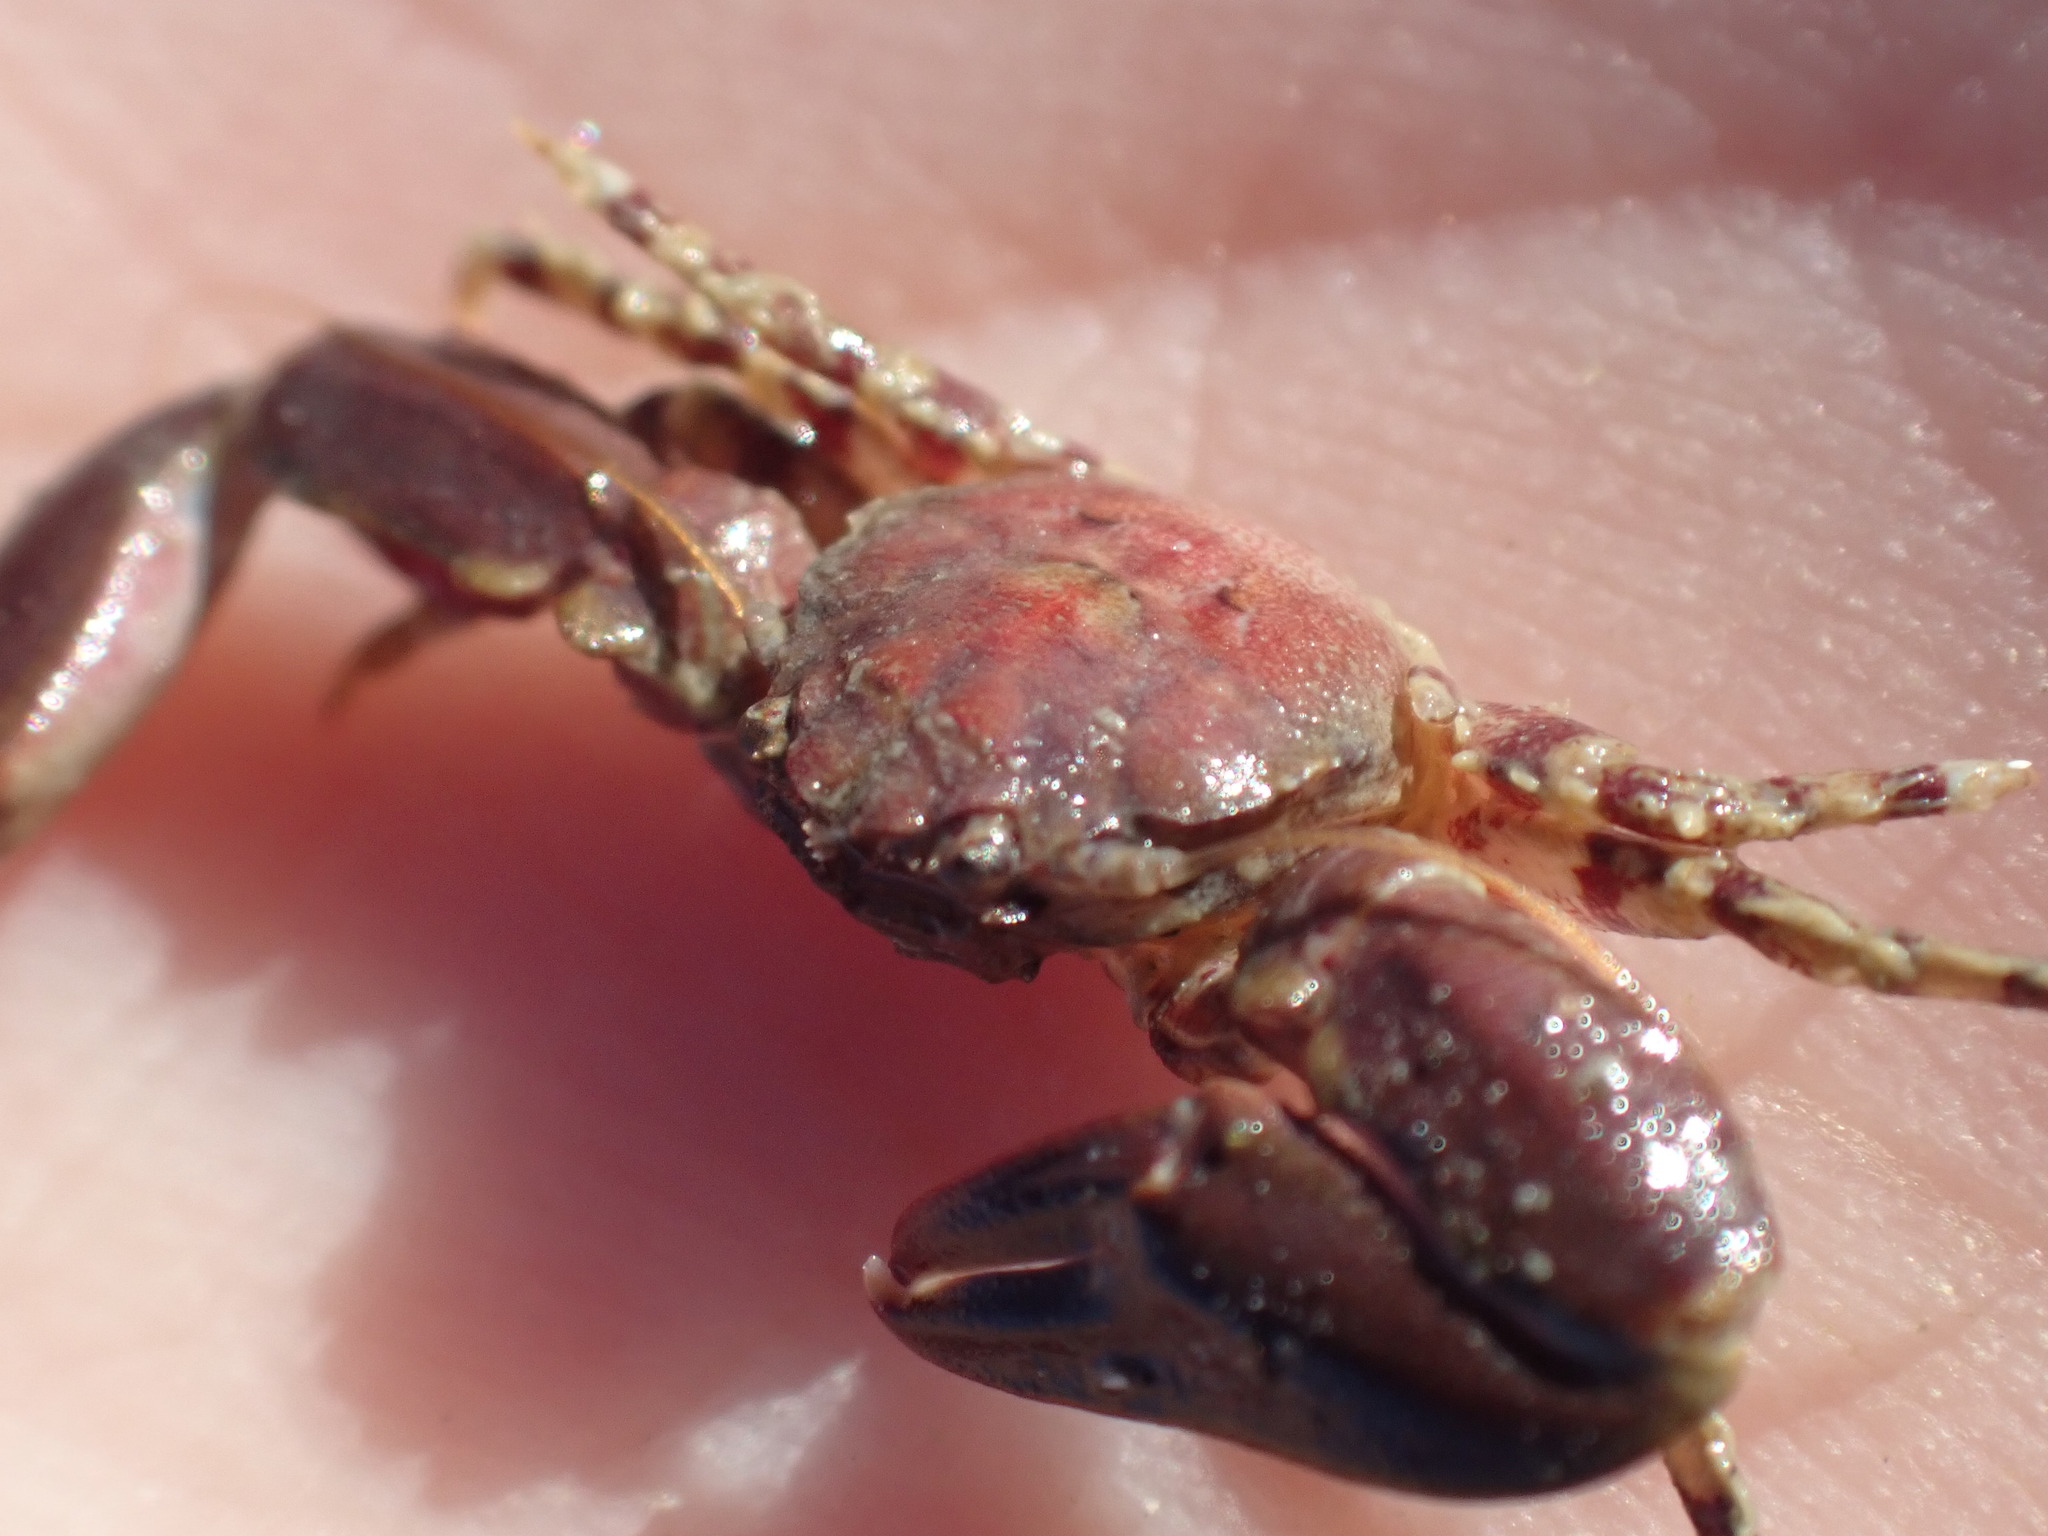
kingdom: Animalia
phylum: Arthropoda
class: Malacostraca
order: Decapoda
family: Porcellanidae
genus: Petrolisthes
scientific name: Petrolisthes novaezelandiae
